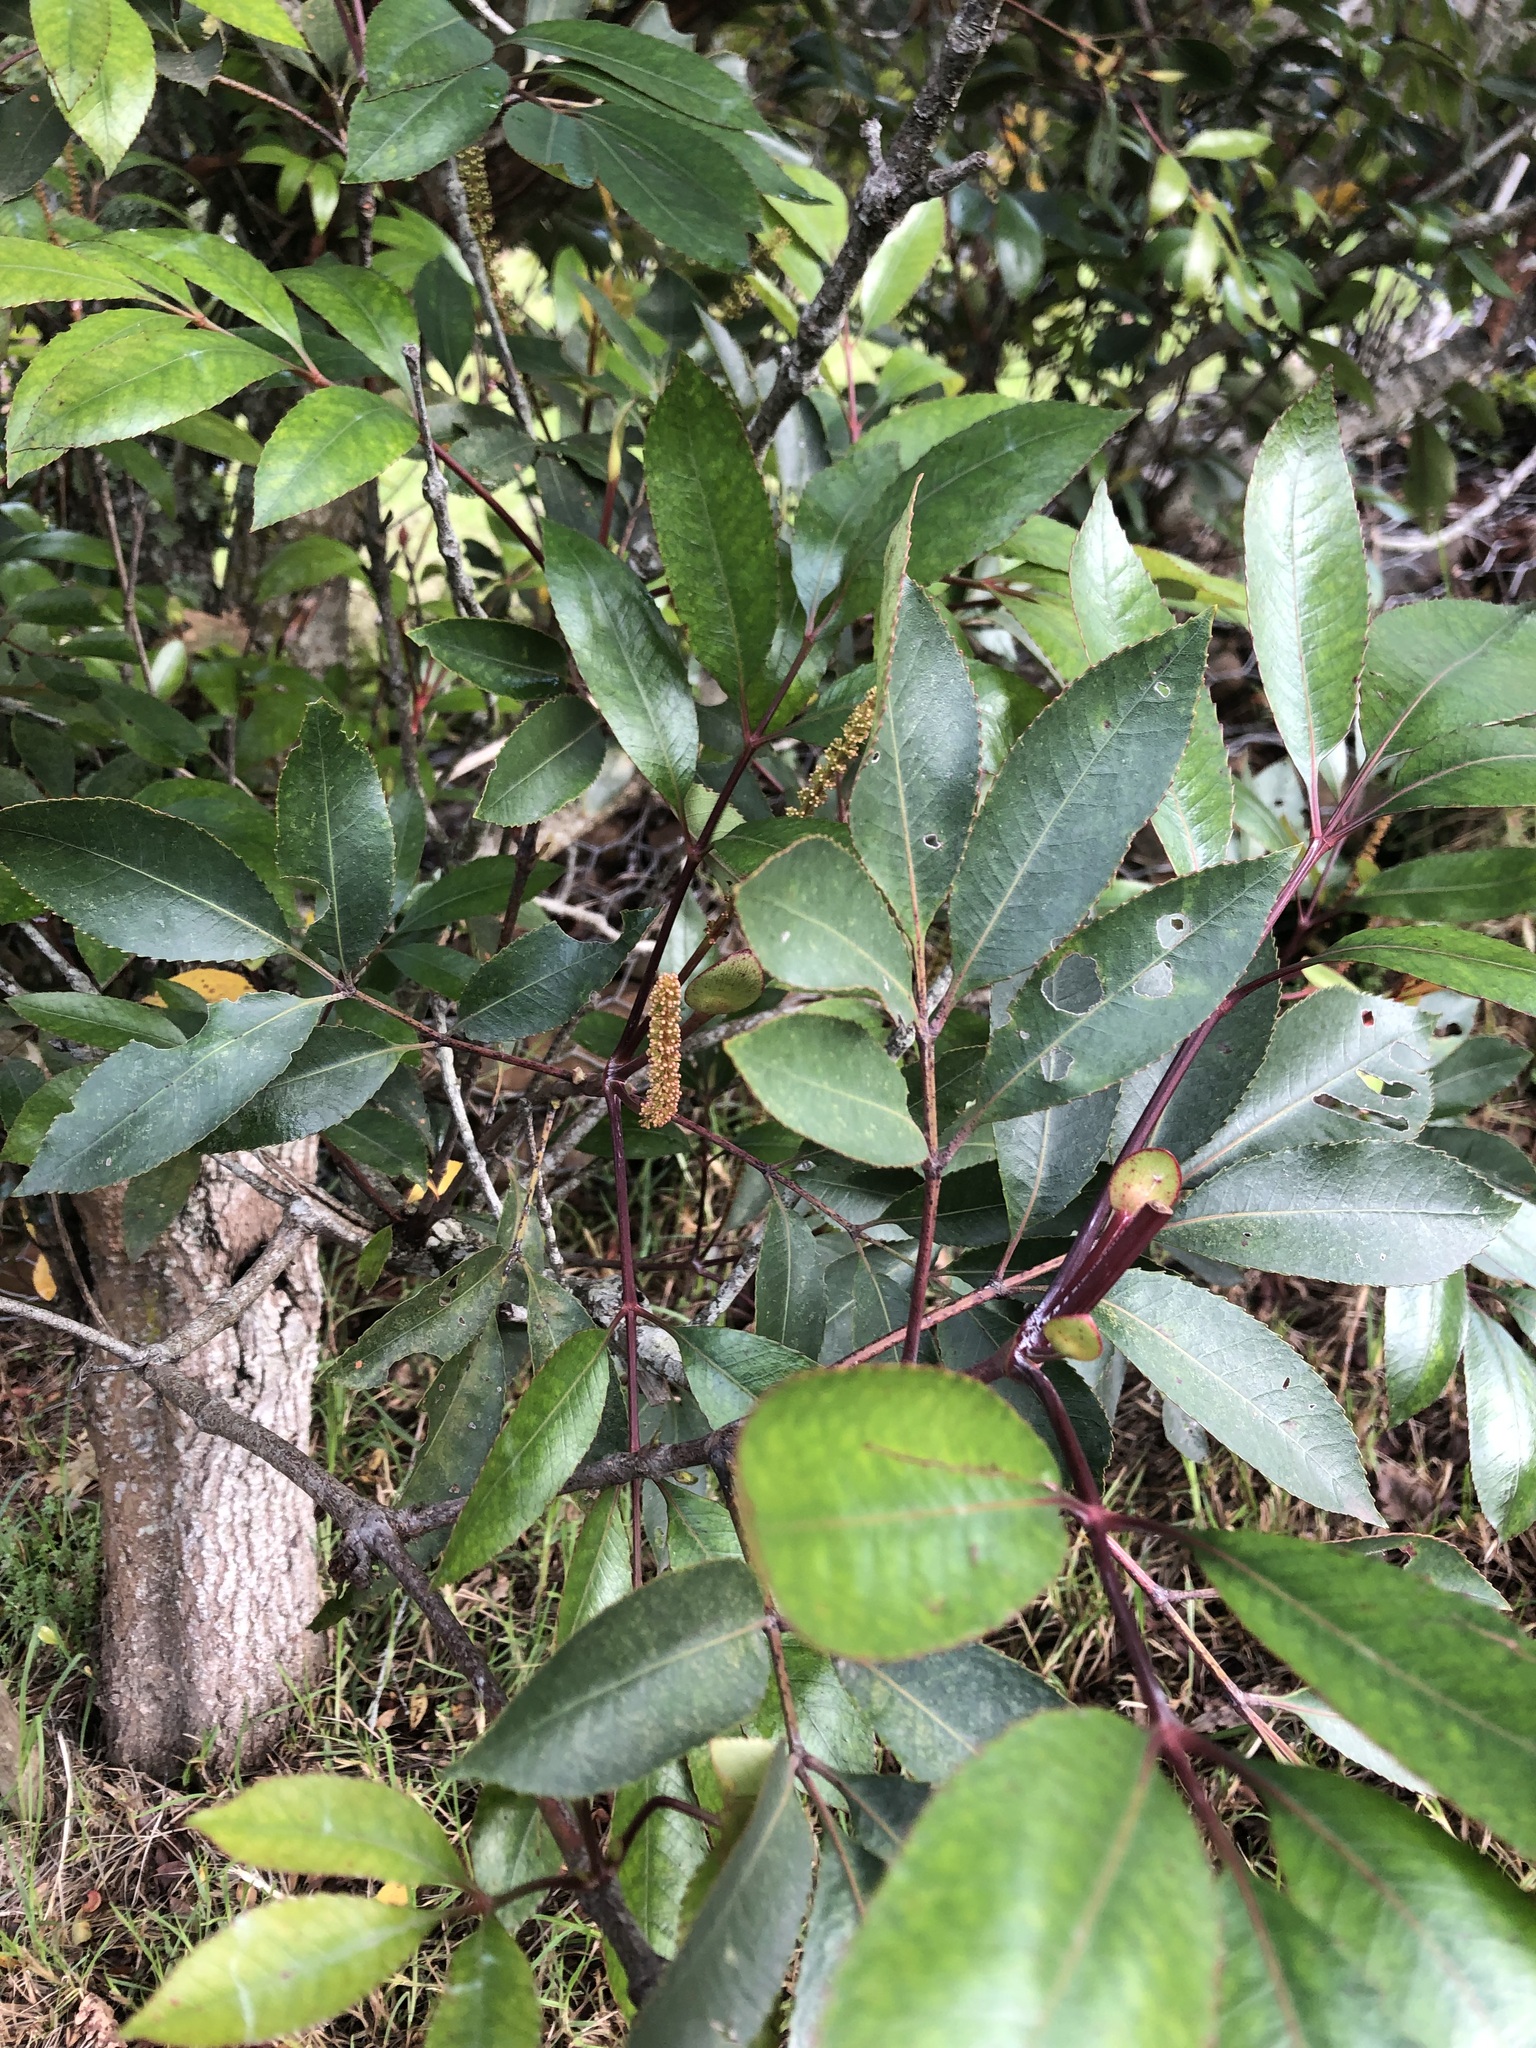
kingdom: Plantae
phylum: Tracheophyta
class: Magnoliopsida
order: Oxalidales
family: Cunoniaceae
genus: Cunonia
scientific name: Cunonia capensis
